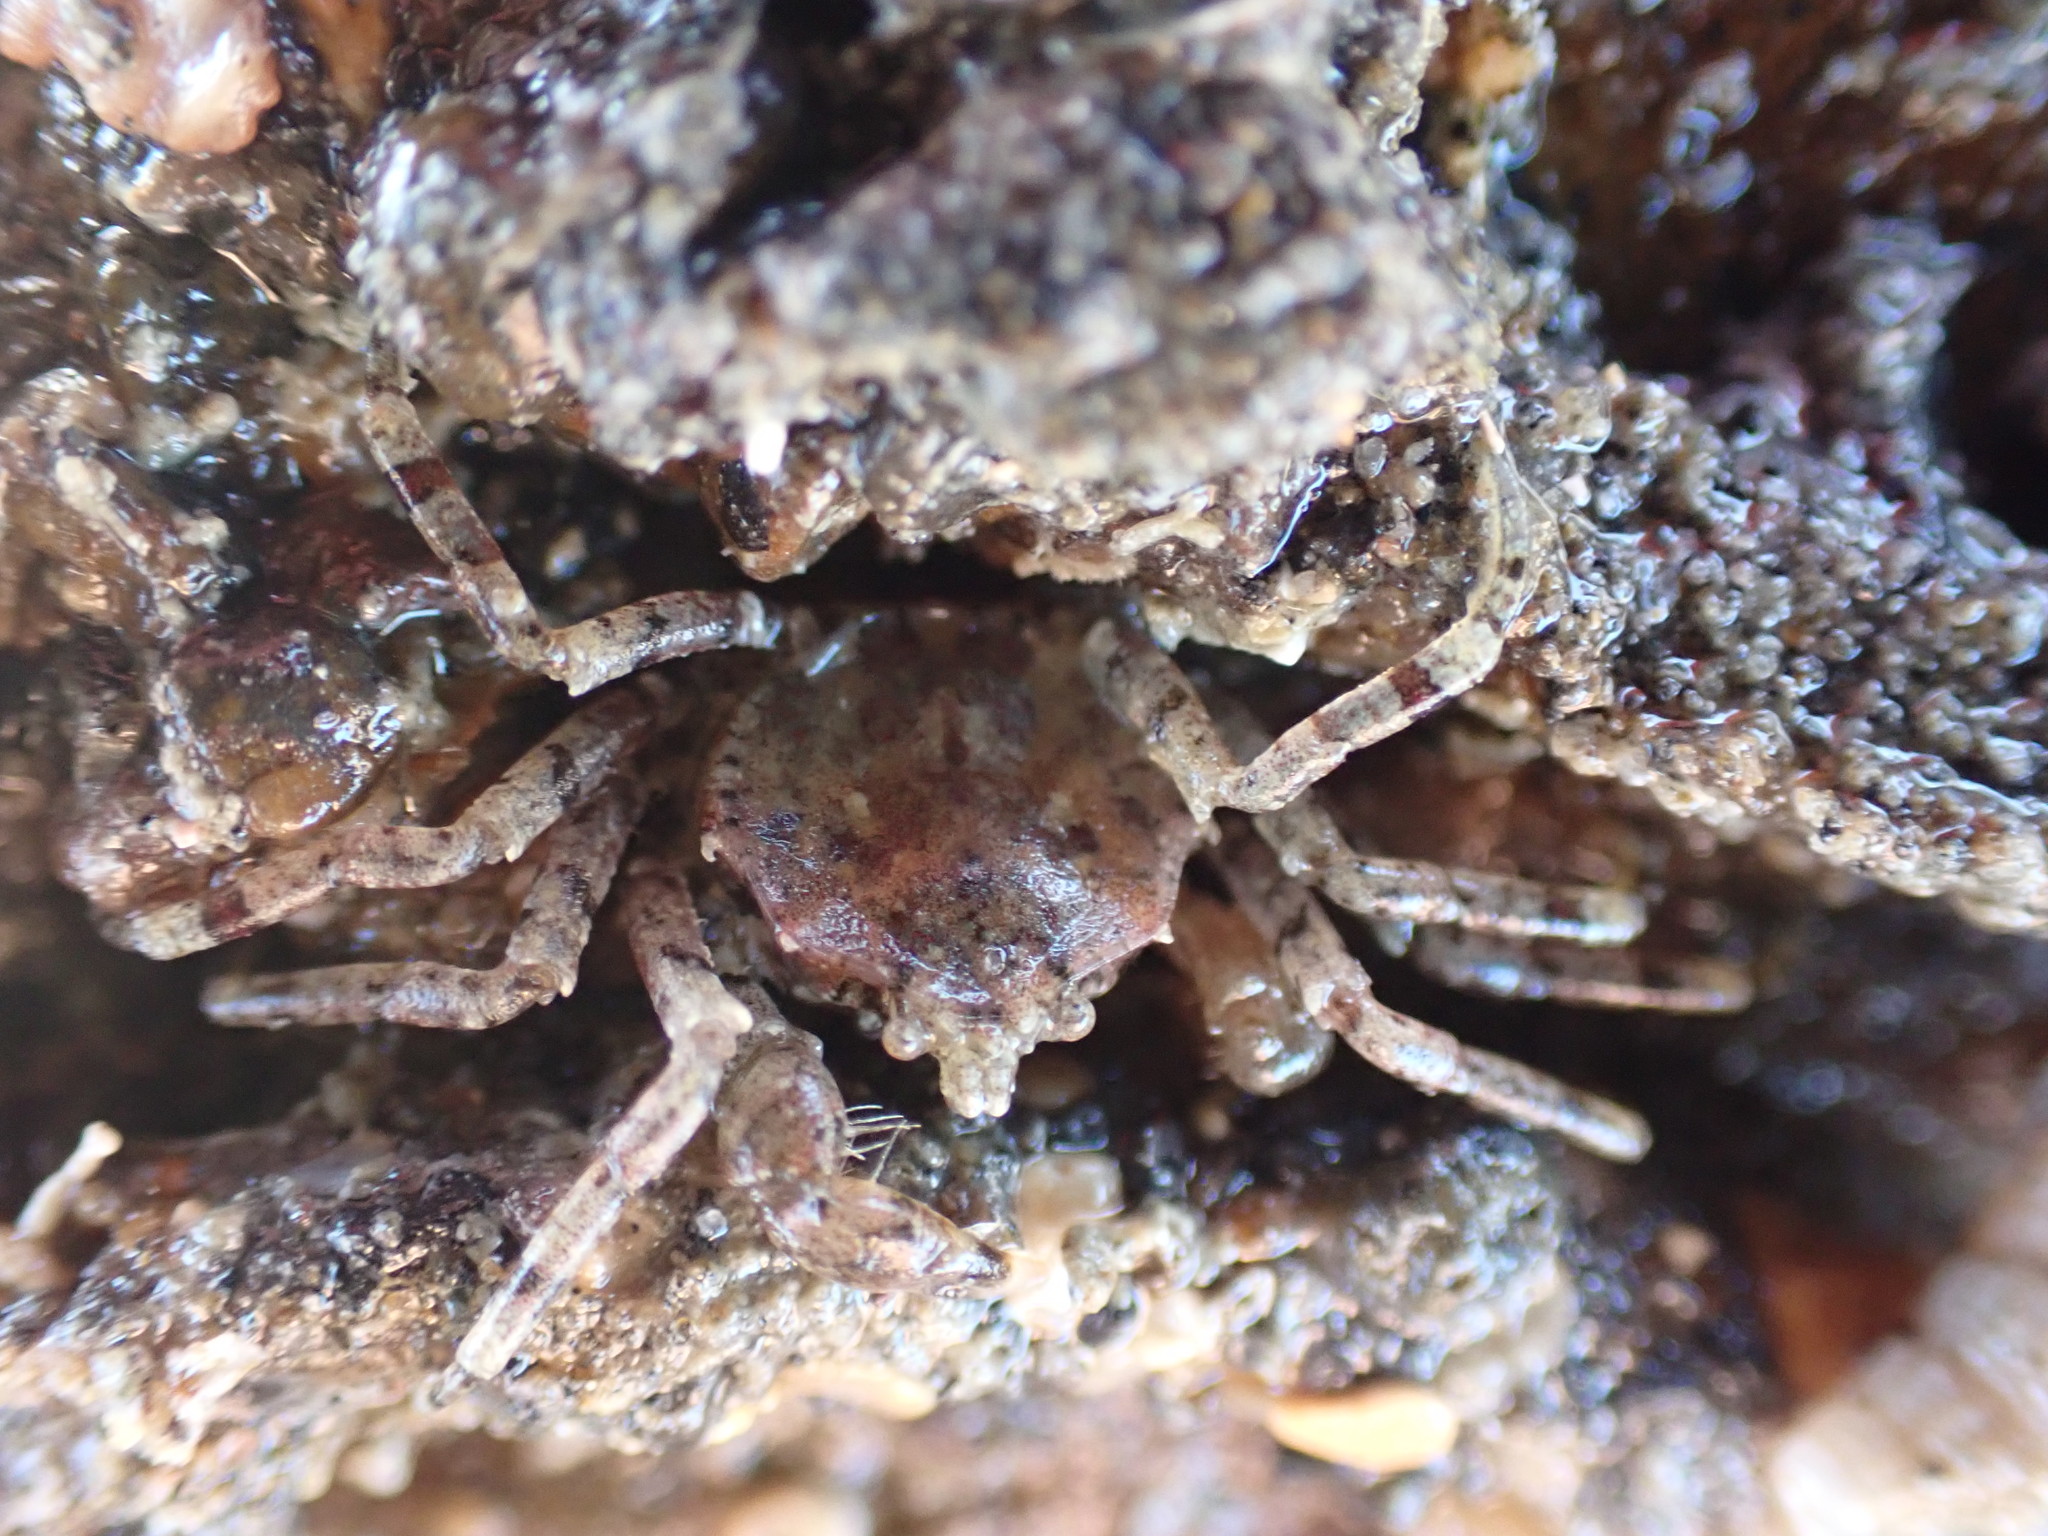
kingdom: Animalia
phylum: Arthropoda
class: Malacostraca
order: Decapoda
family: Hymenosomatidae
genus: Halicarcinus
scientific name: Halicarcinus cookii
